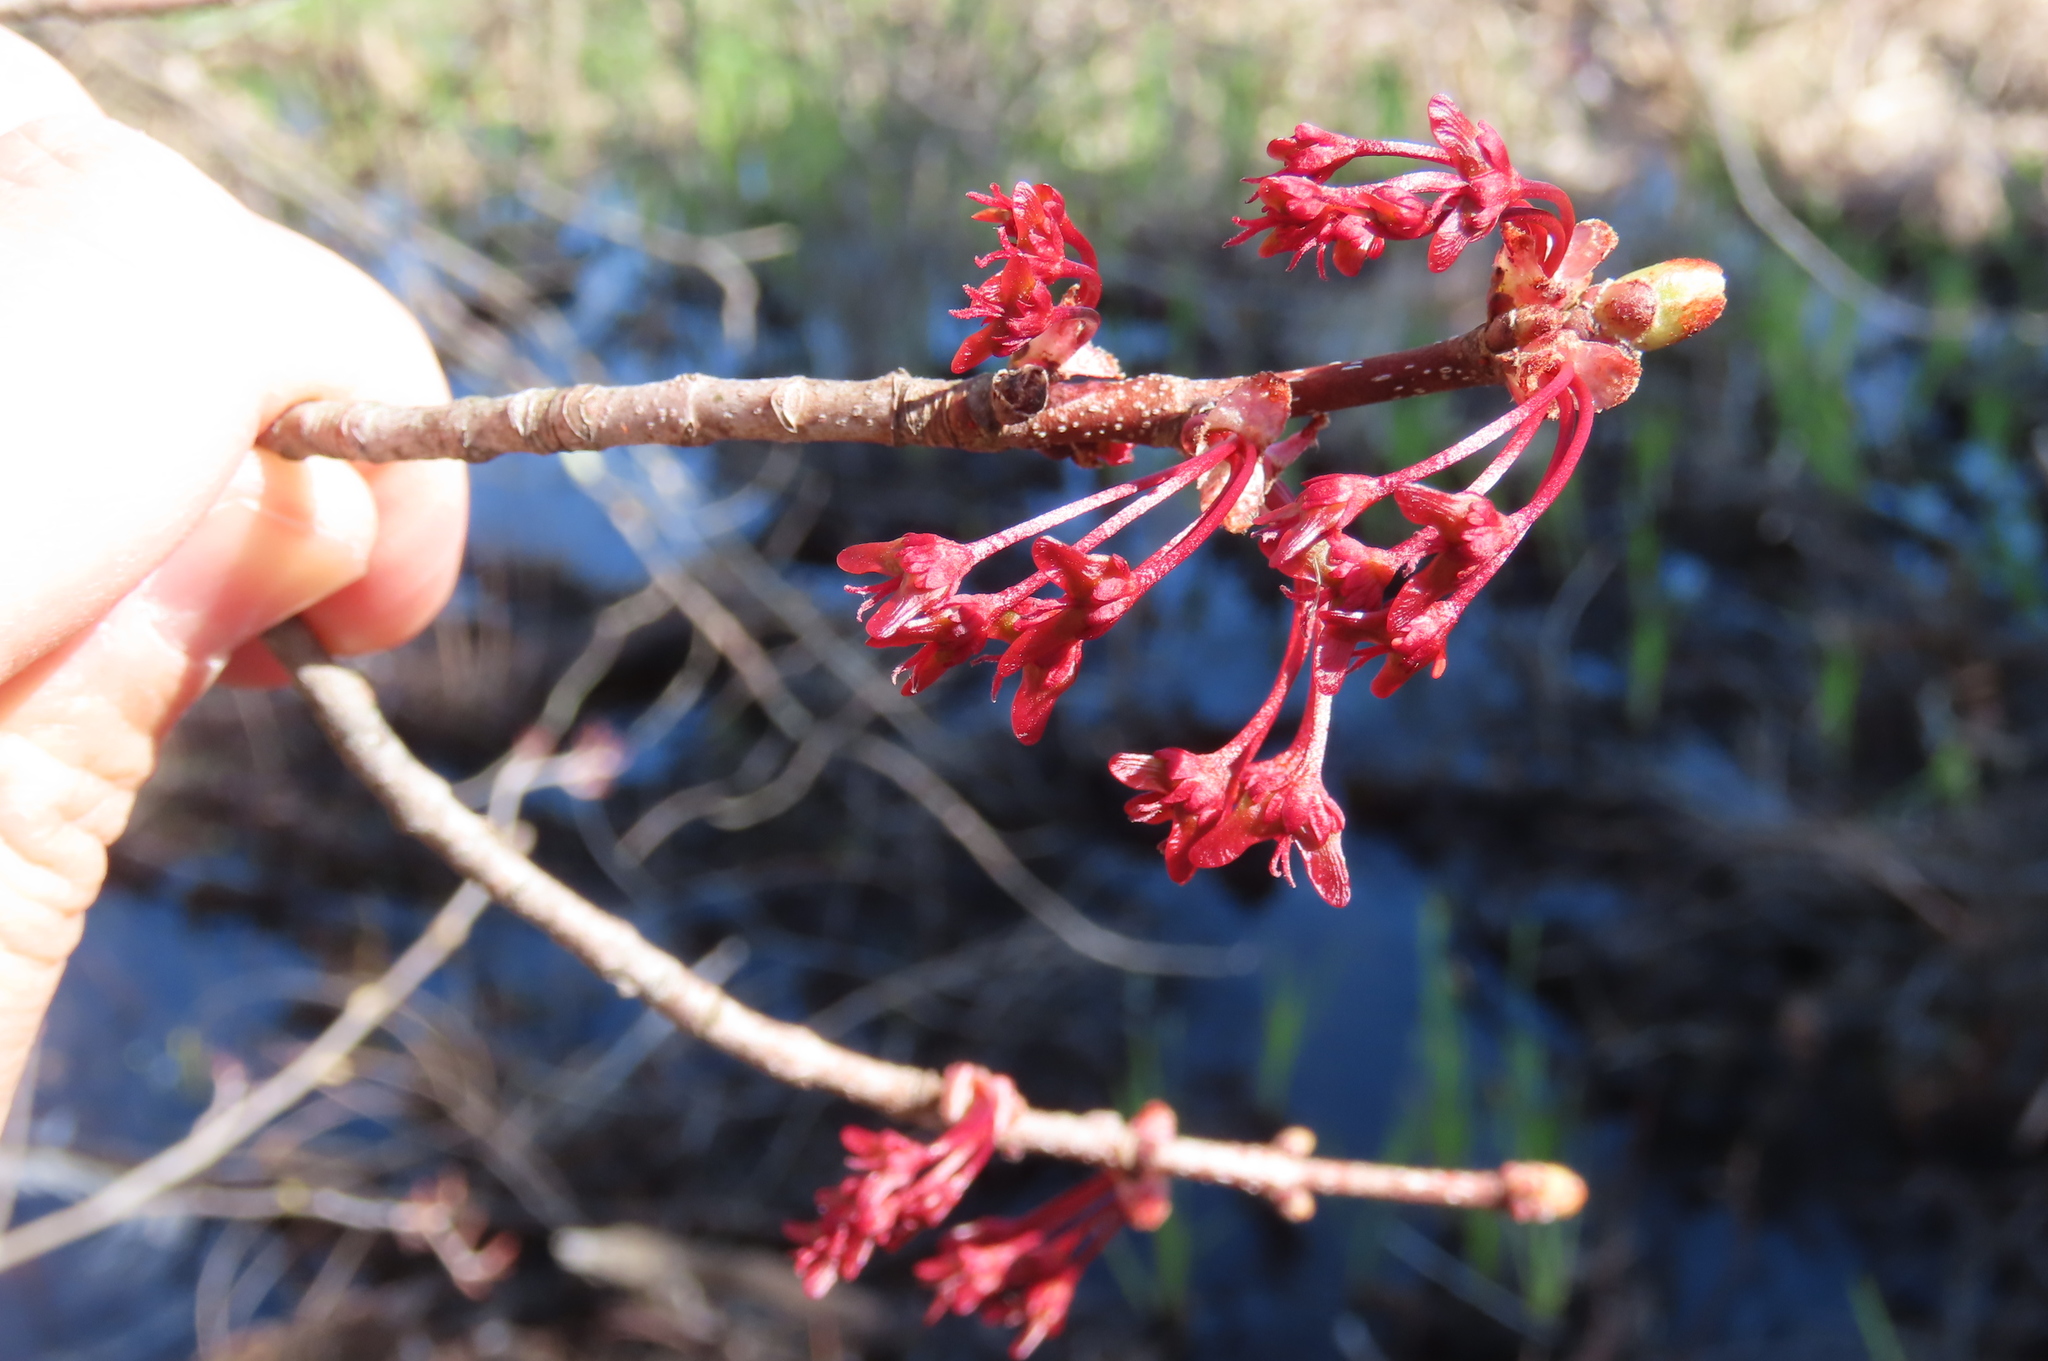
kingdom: Plantae
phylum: Tracheophyta
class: Magnoliopsida
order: Sapindales
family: Sapindaceae
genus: Acer
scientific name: Acer rubrum
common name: Red maple
